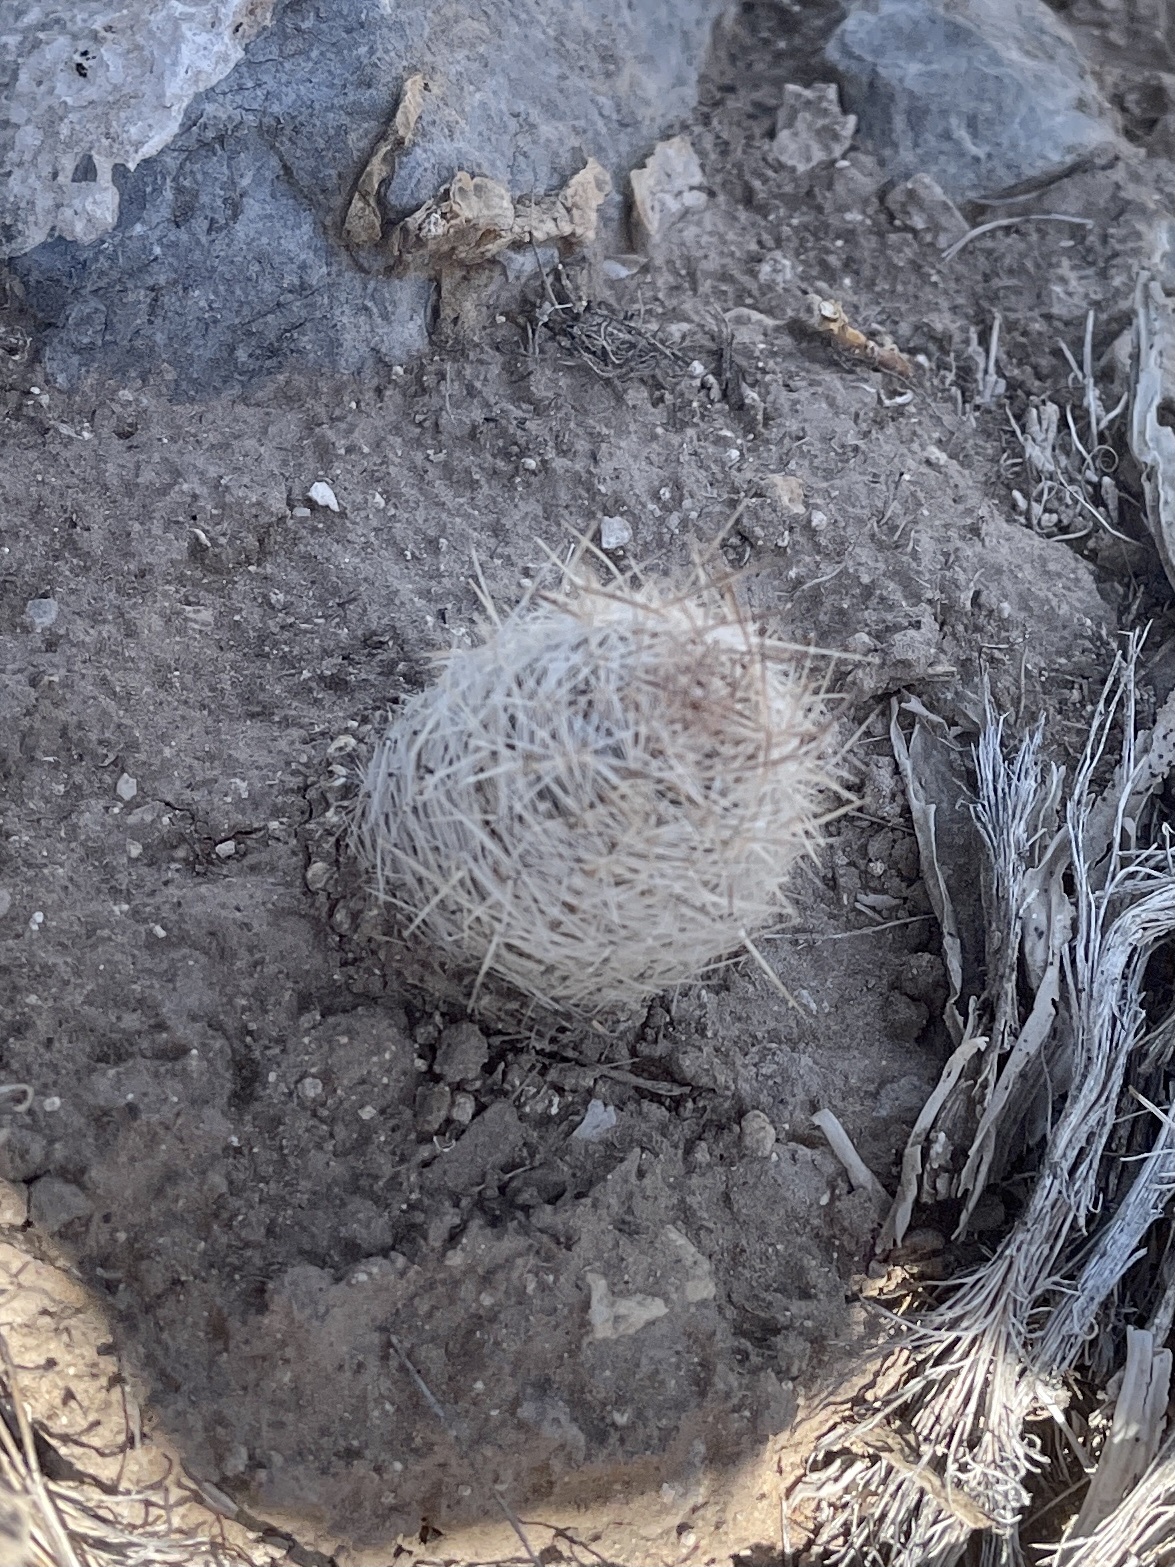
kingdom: Plantae
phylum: Tracheophyta
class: Magnoliopsida
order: Caryophyllales
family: Cactaceae
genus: Pelecyphora
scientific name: Pelecyphora tuberculosa
